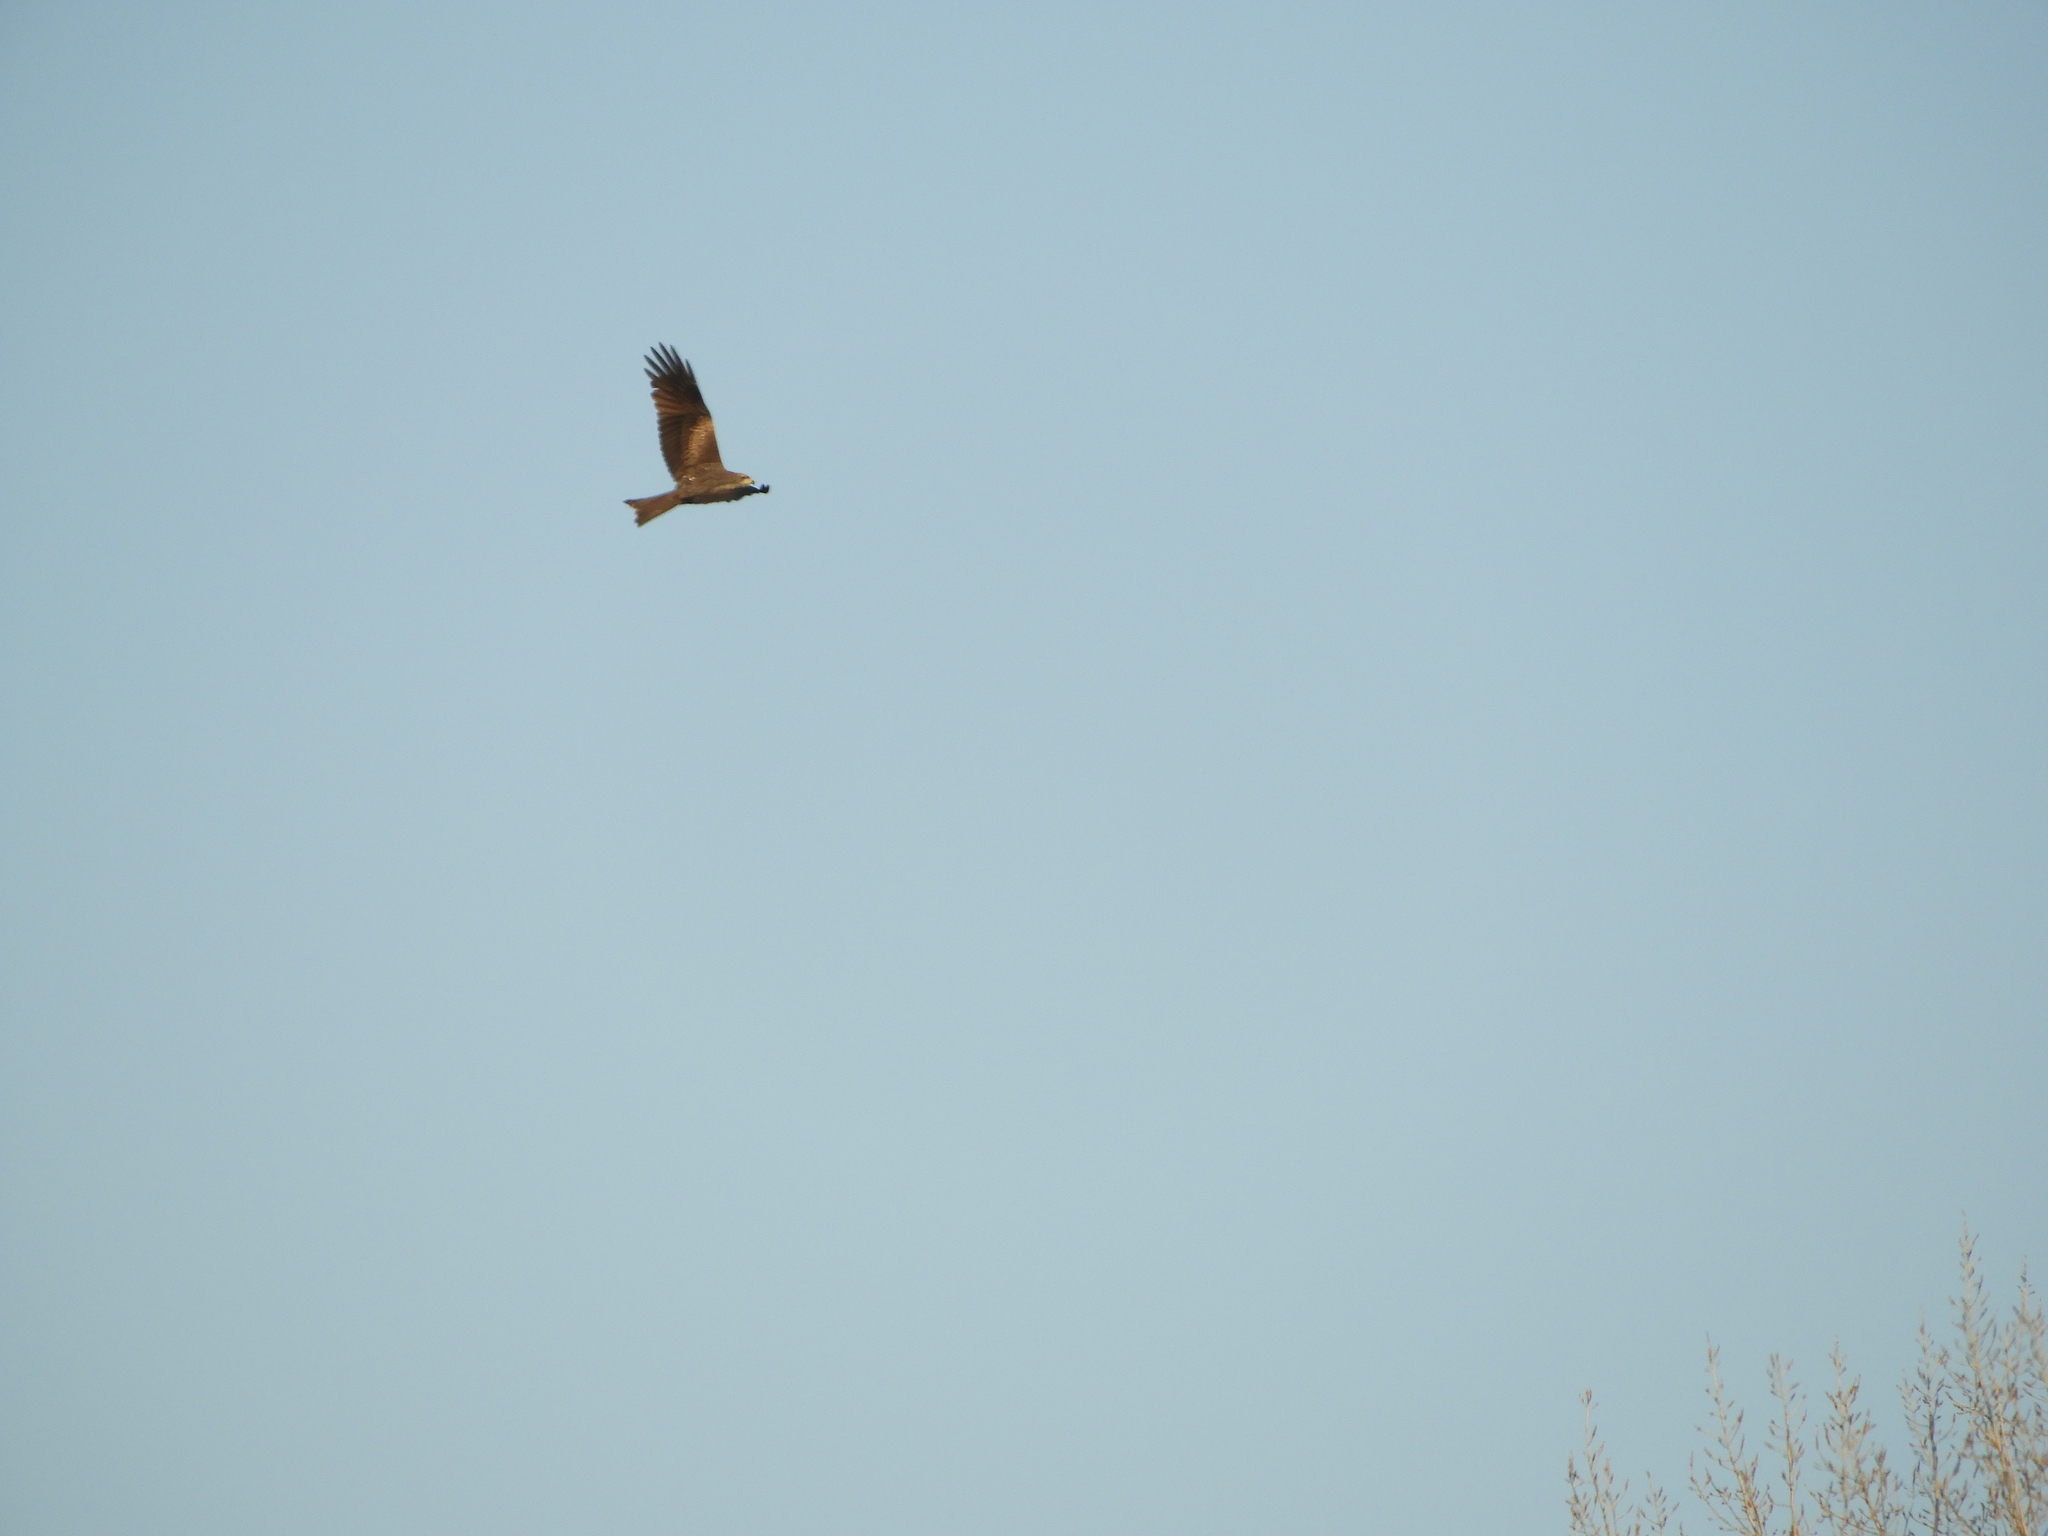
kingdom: Animalia
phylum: Chordata
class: Aves
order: Accipitriformes
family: Accipitridae
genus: Milvus
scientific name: Milvus migrans
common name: Black kite
